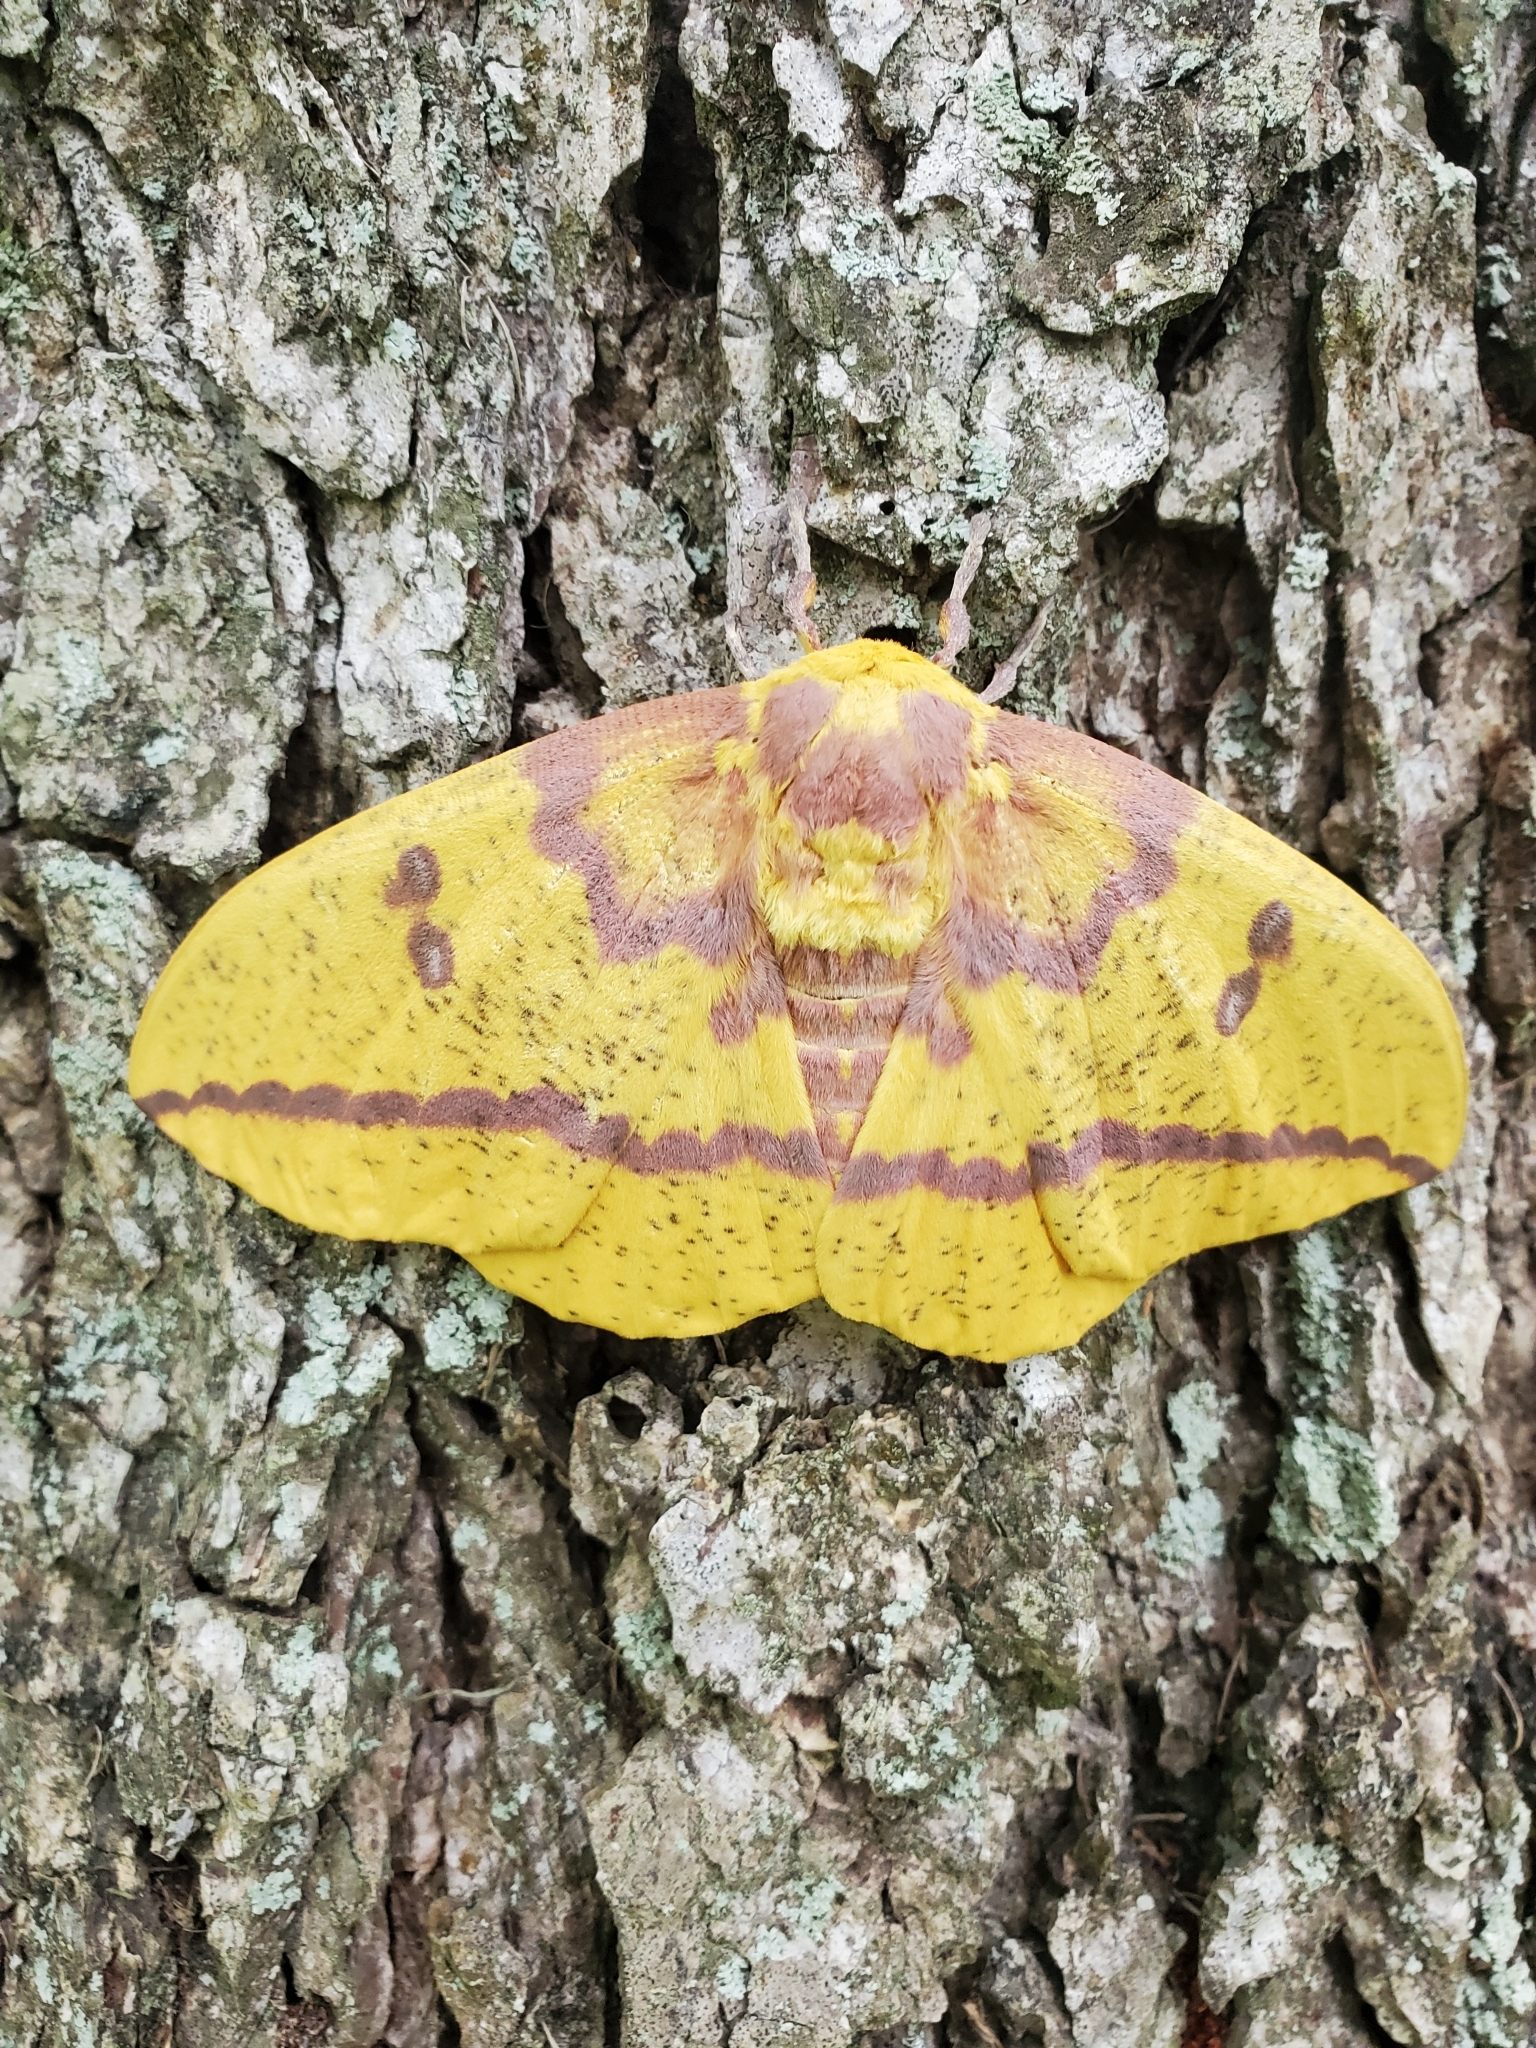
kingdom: Animalia
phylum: Arthropoda
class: Insecta
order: Lepidoptera
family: Saturniidae
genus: Eacles
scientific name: Eacles imperialis
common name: Imperial moth
